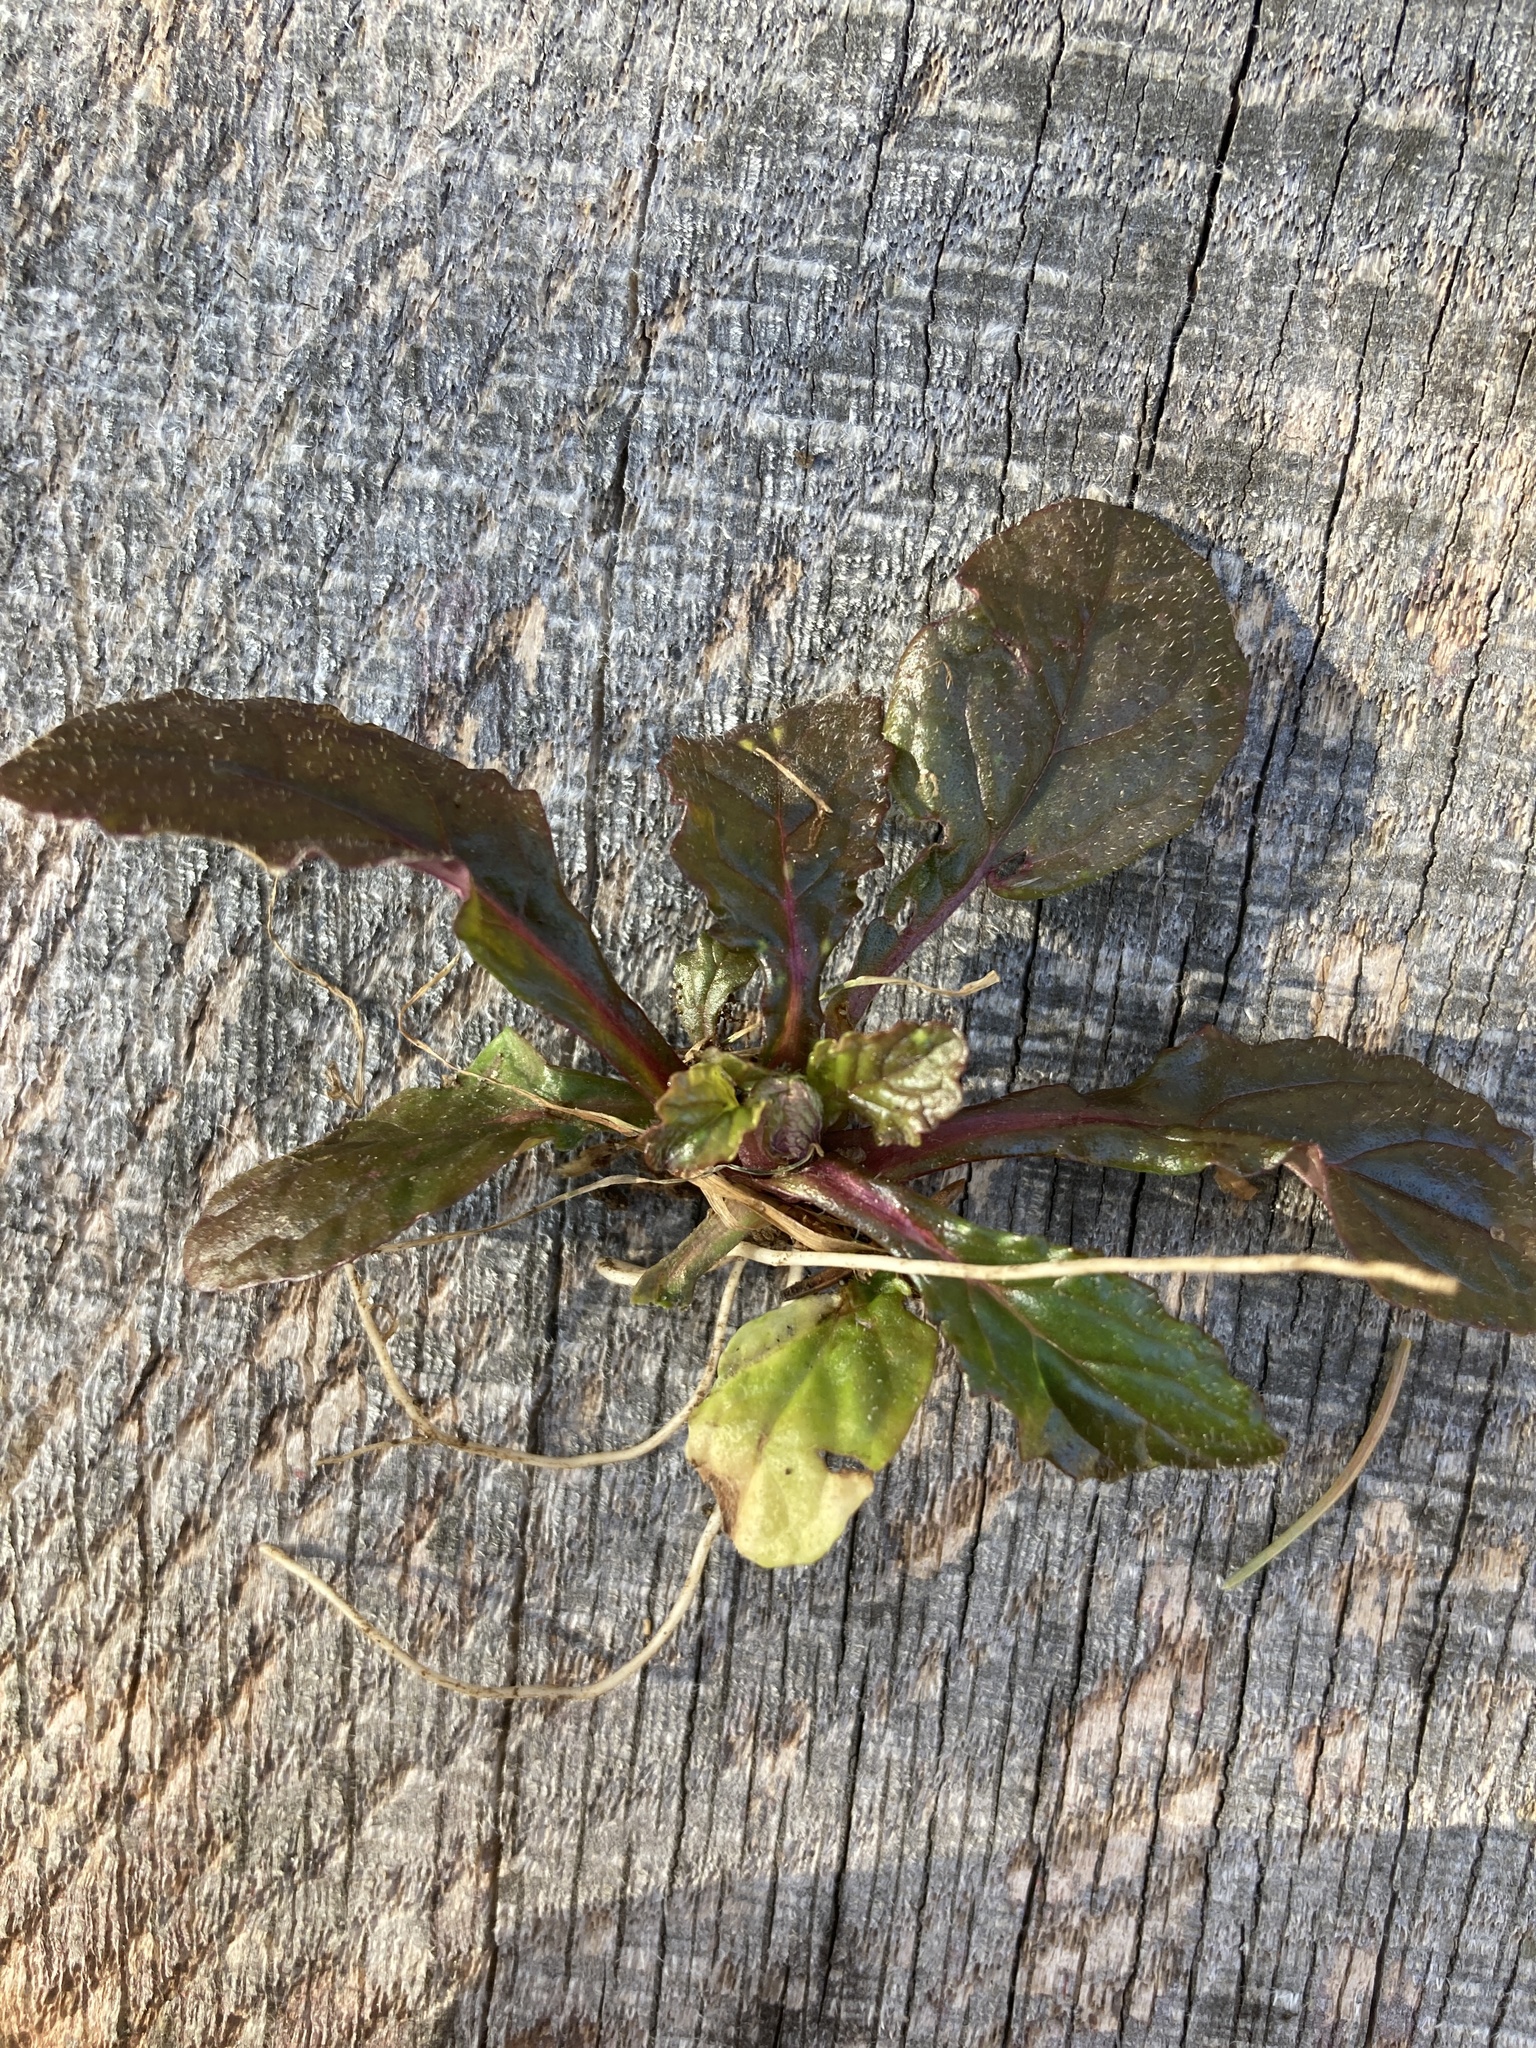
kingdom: Plantae
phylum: Tracheophyta
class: Magnoliopsida
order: Lamiales
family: Lamiaceae
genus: Ajuga
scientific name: Ajuga reptans
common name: Bugle
